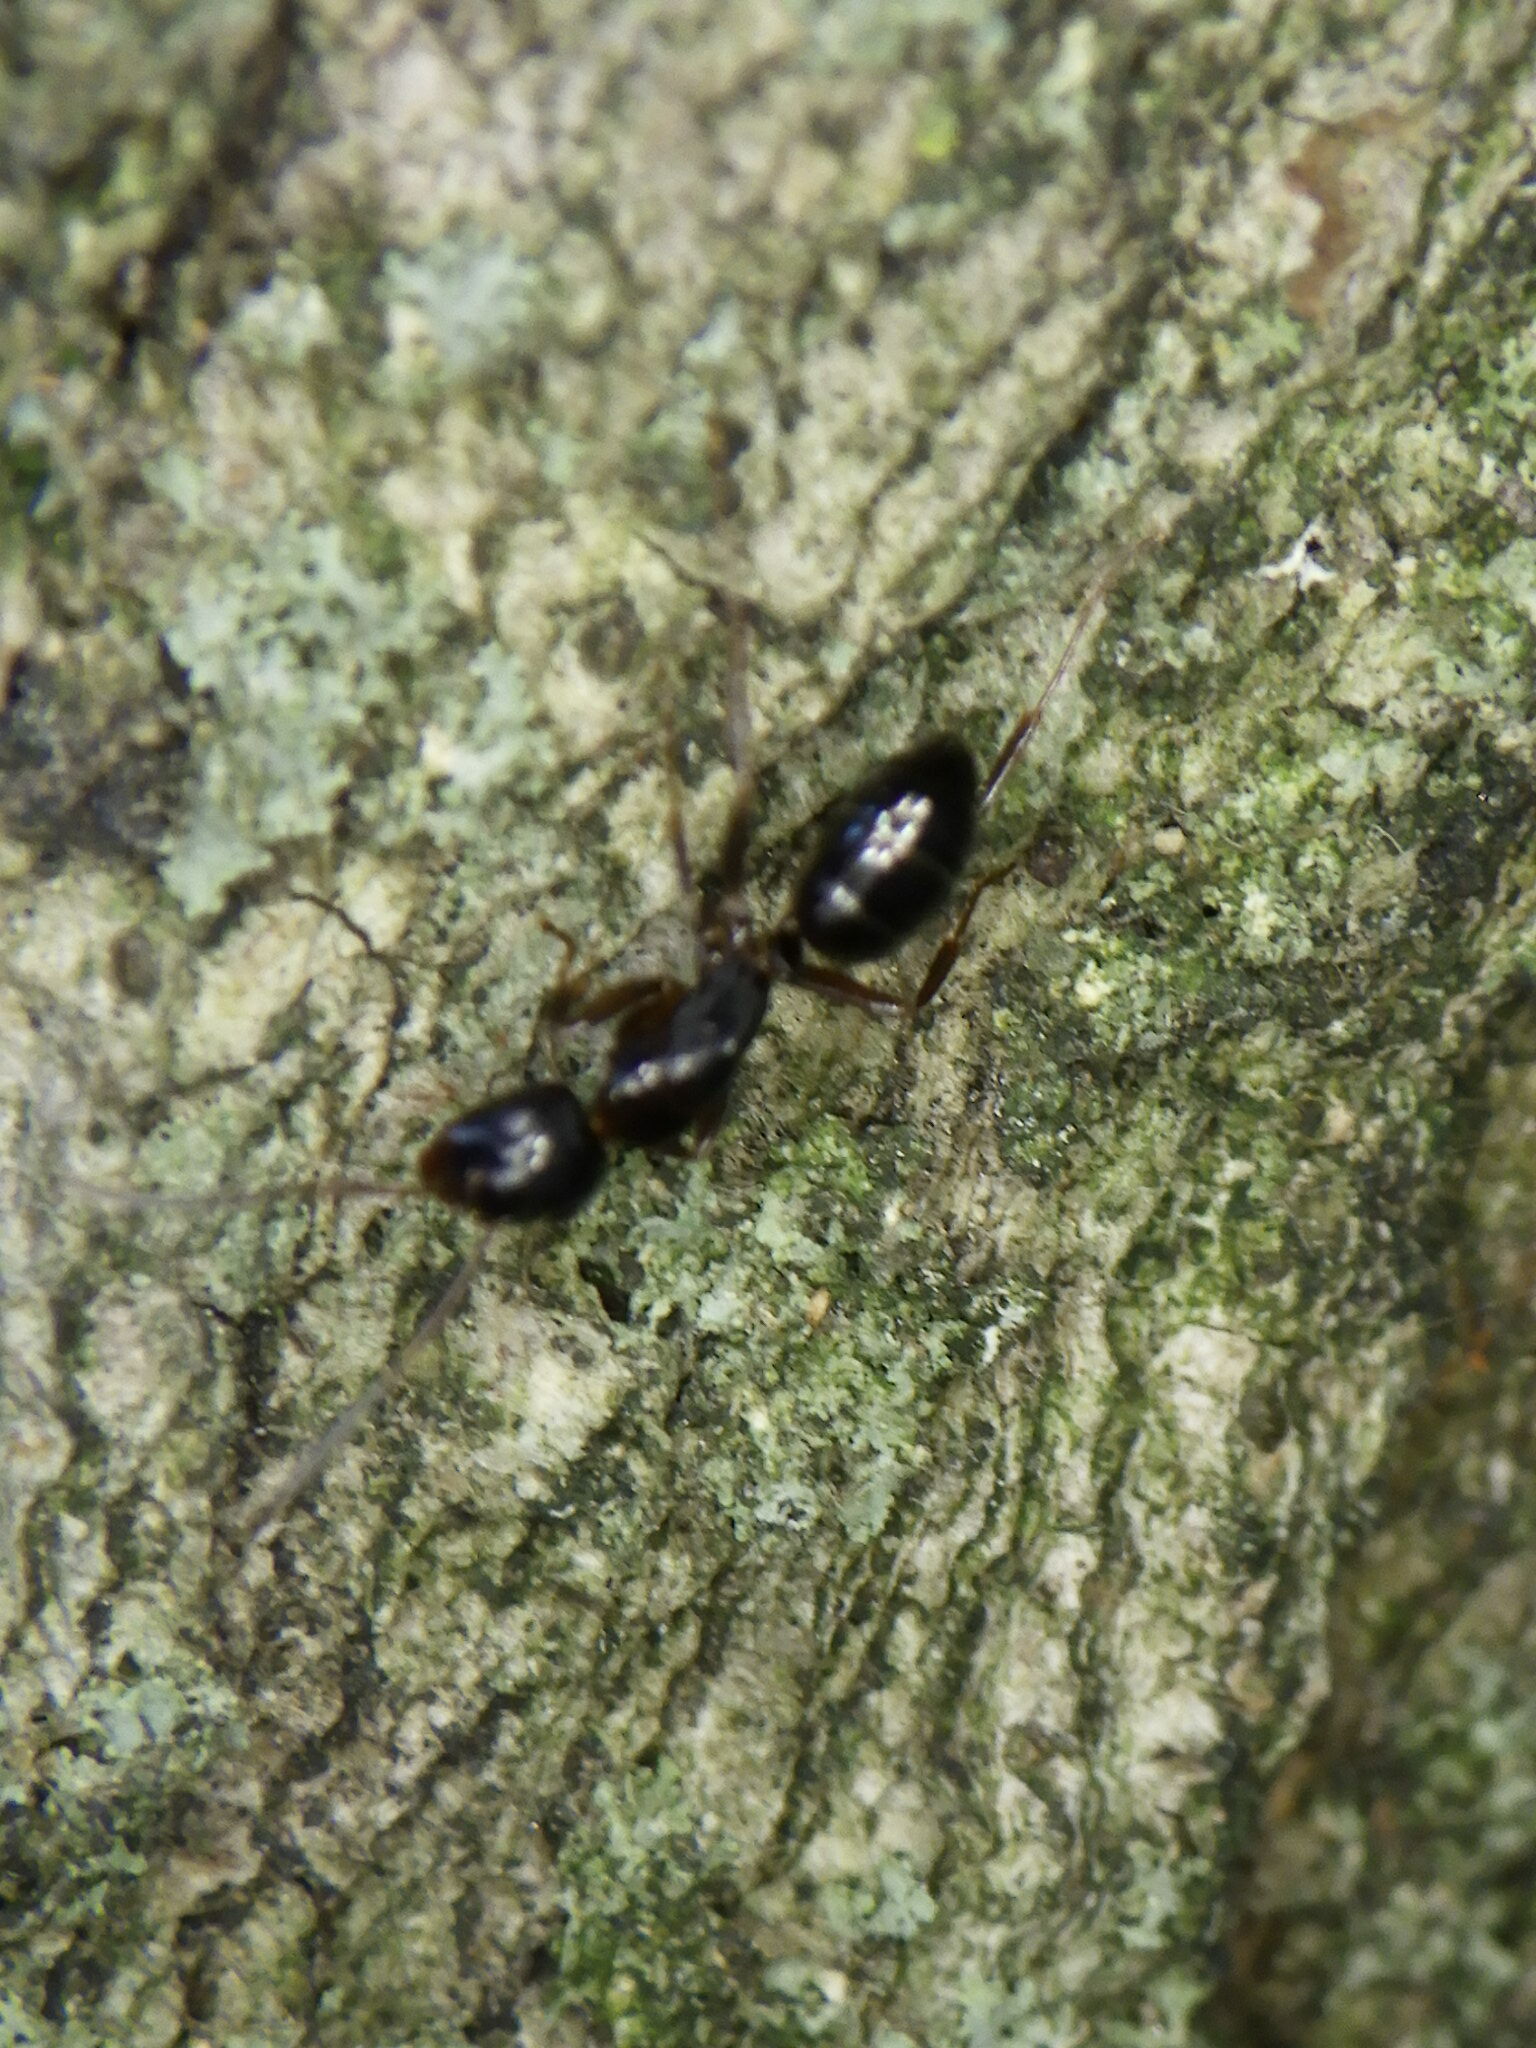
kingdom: Animalia
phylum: Arthropoda
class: Insecta
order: Hymenoptera
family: Formicidae
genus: Camponotus
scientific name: Camponotus nearcticus
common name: Smaller carpenter ant
